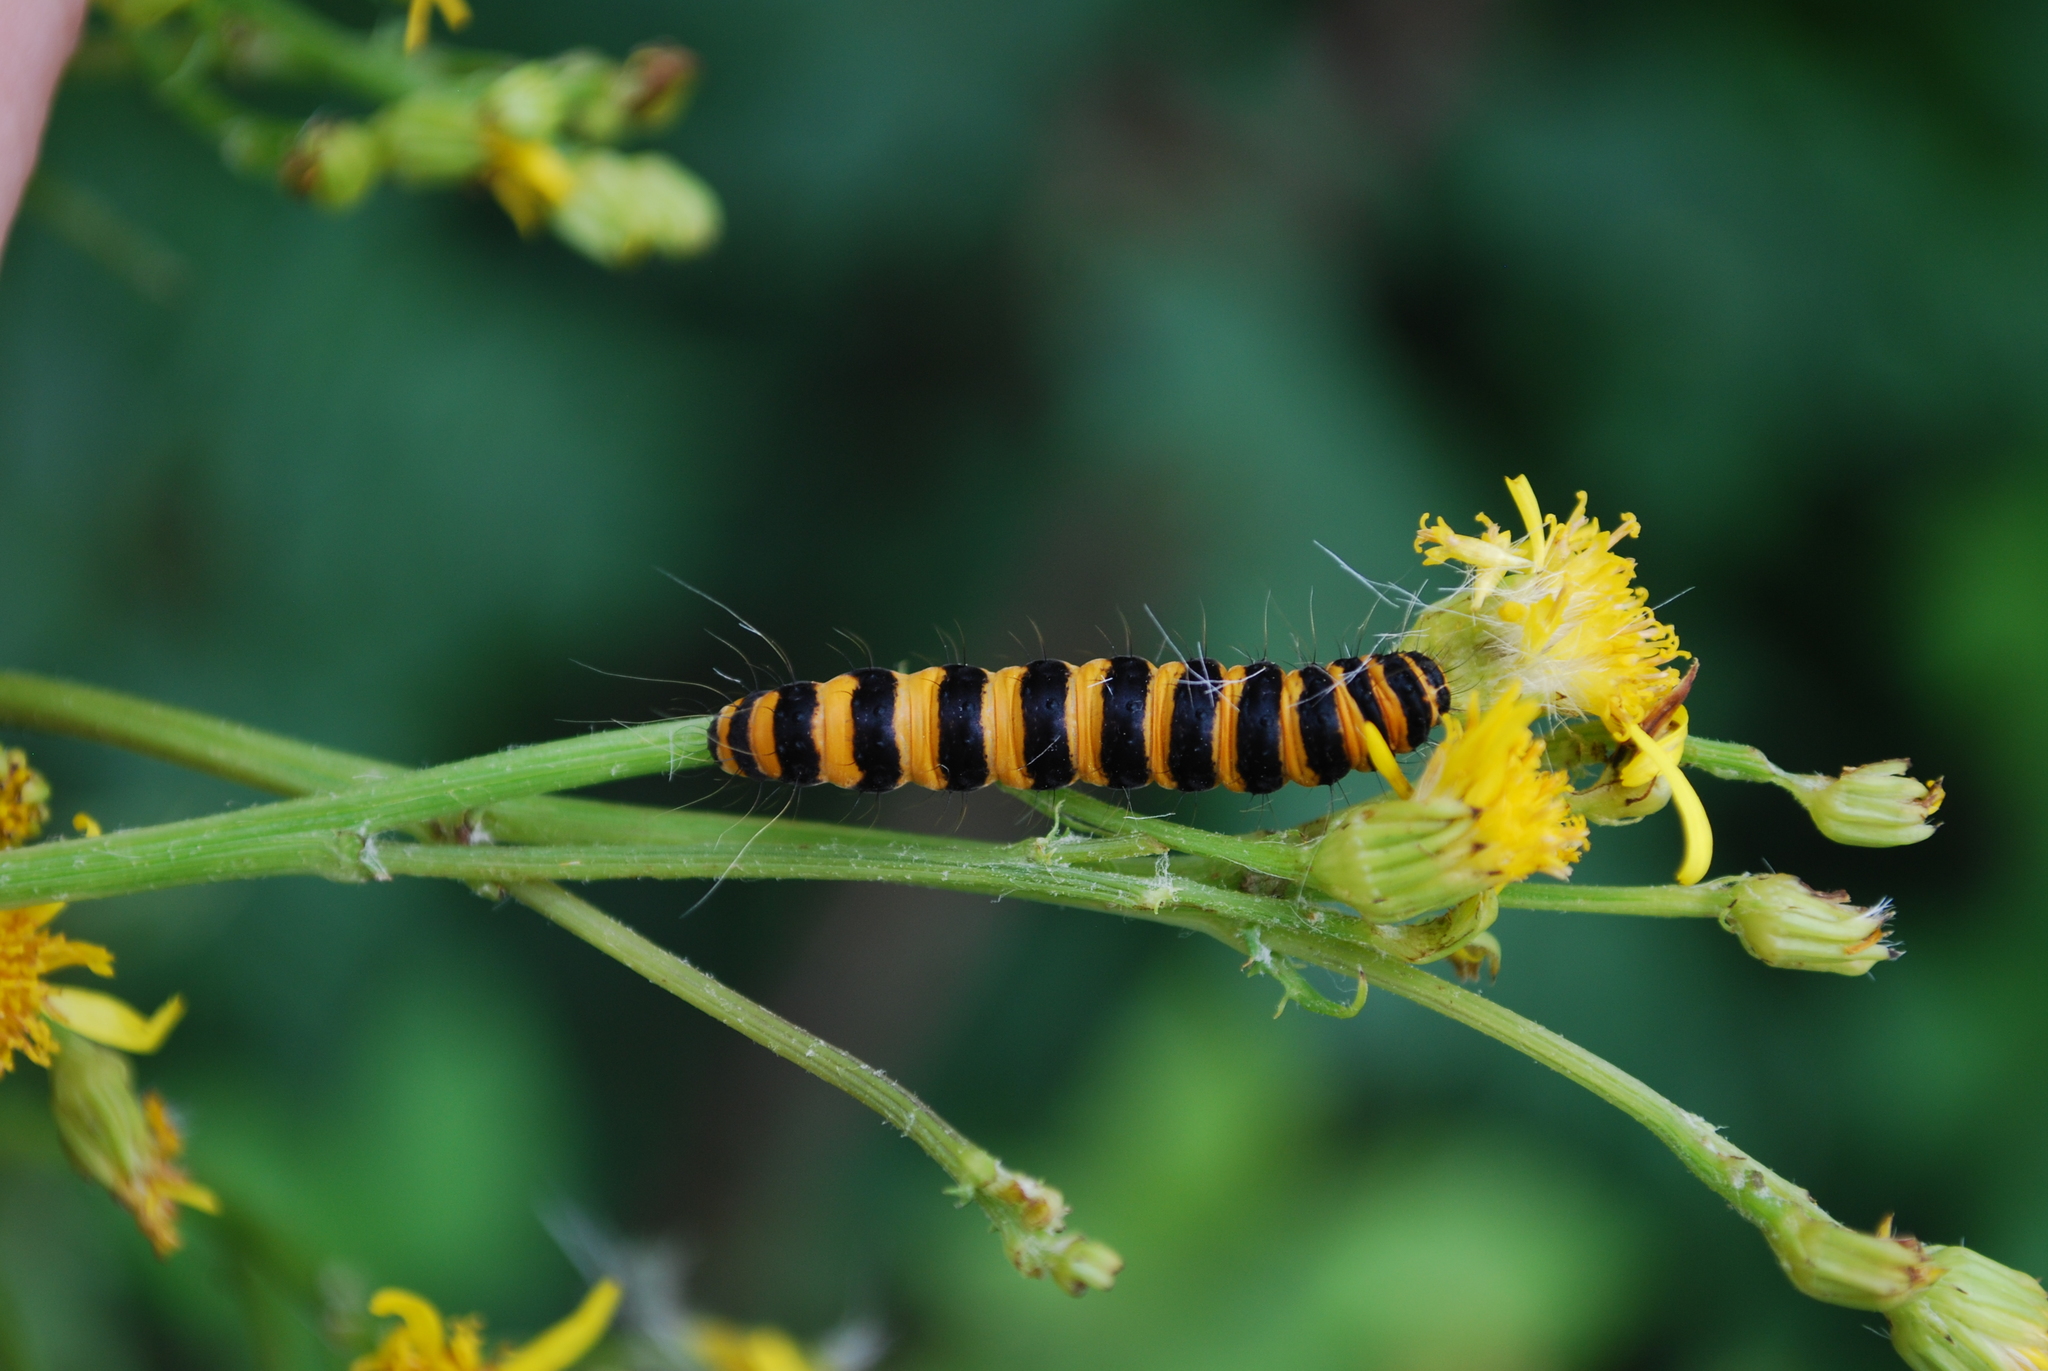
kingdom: Animalia
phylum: Arthropoda
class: Insecta
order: Lepidoptera
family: Erebidae
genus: Tyria
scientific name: Tyria jacobaeae
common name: Cinnabar
